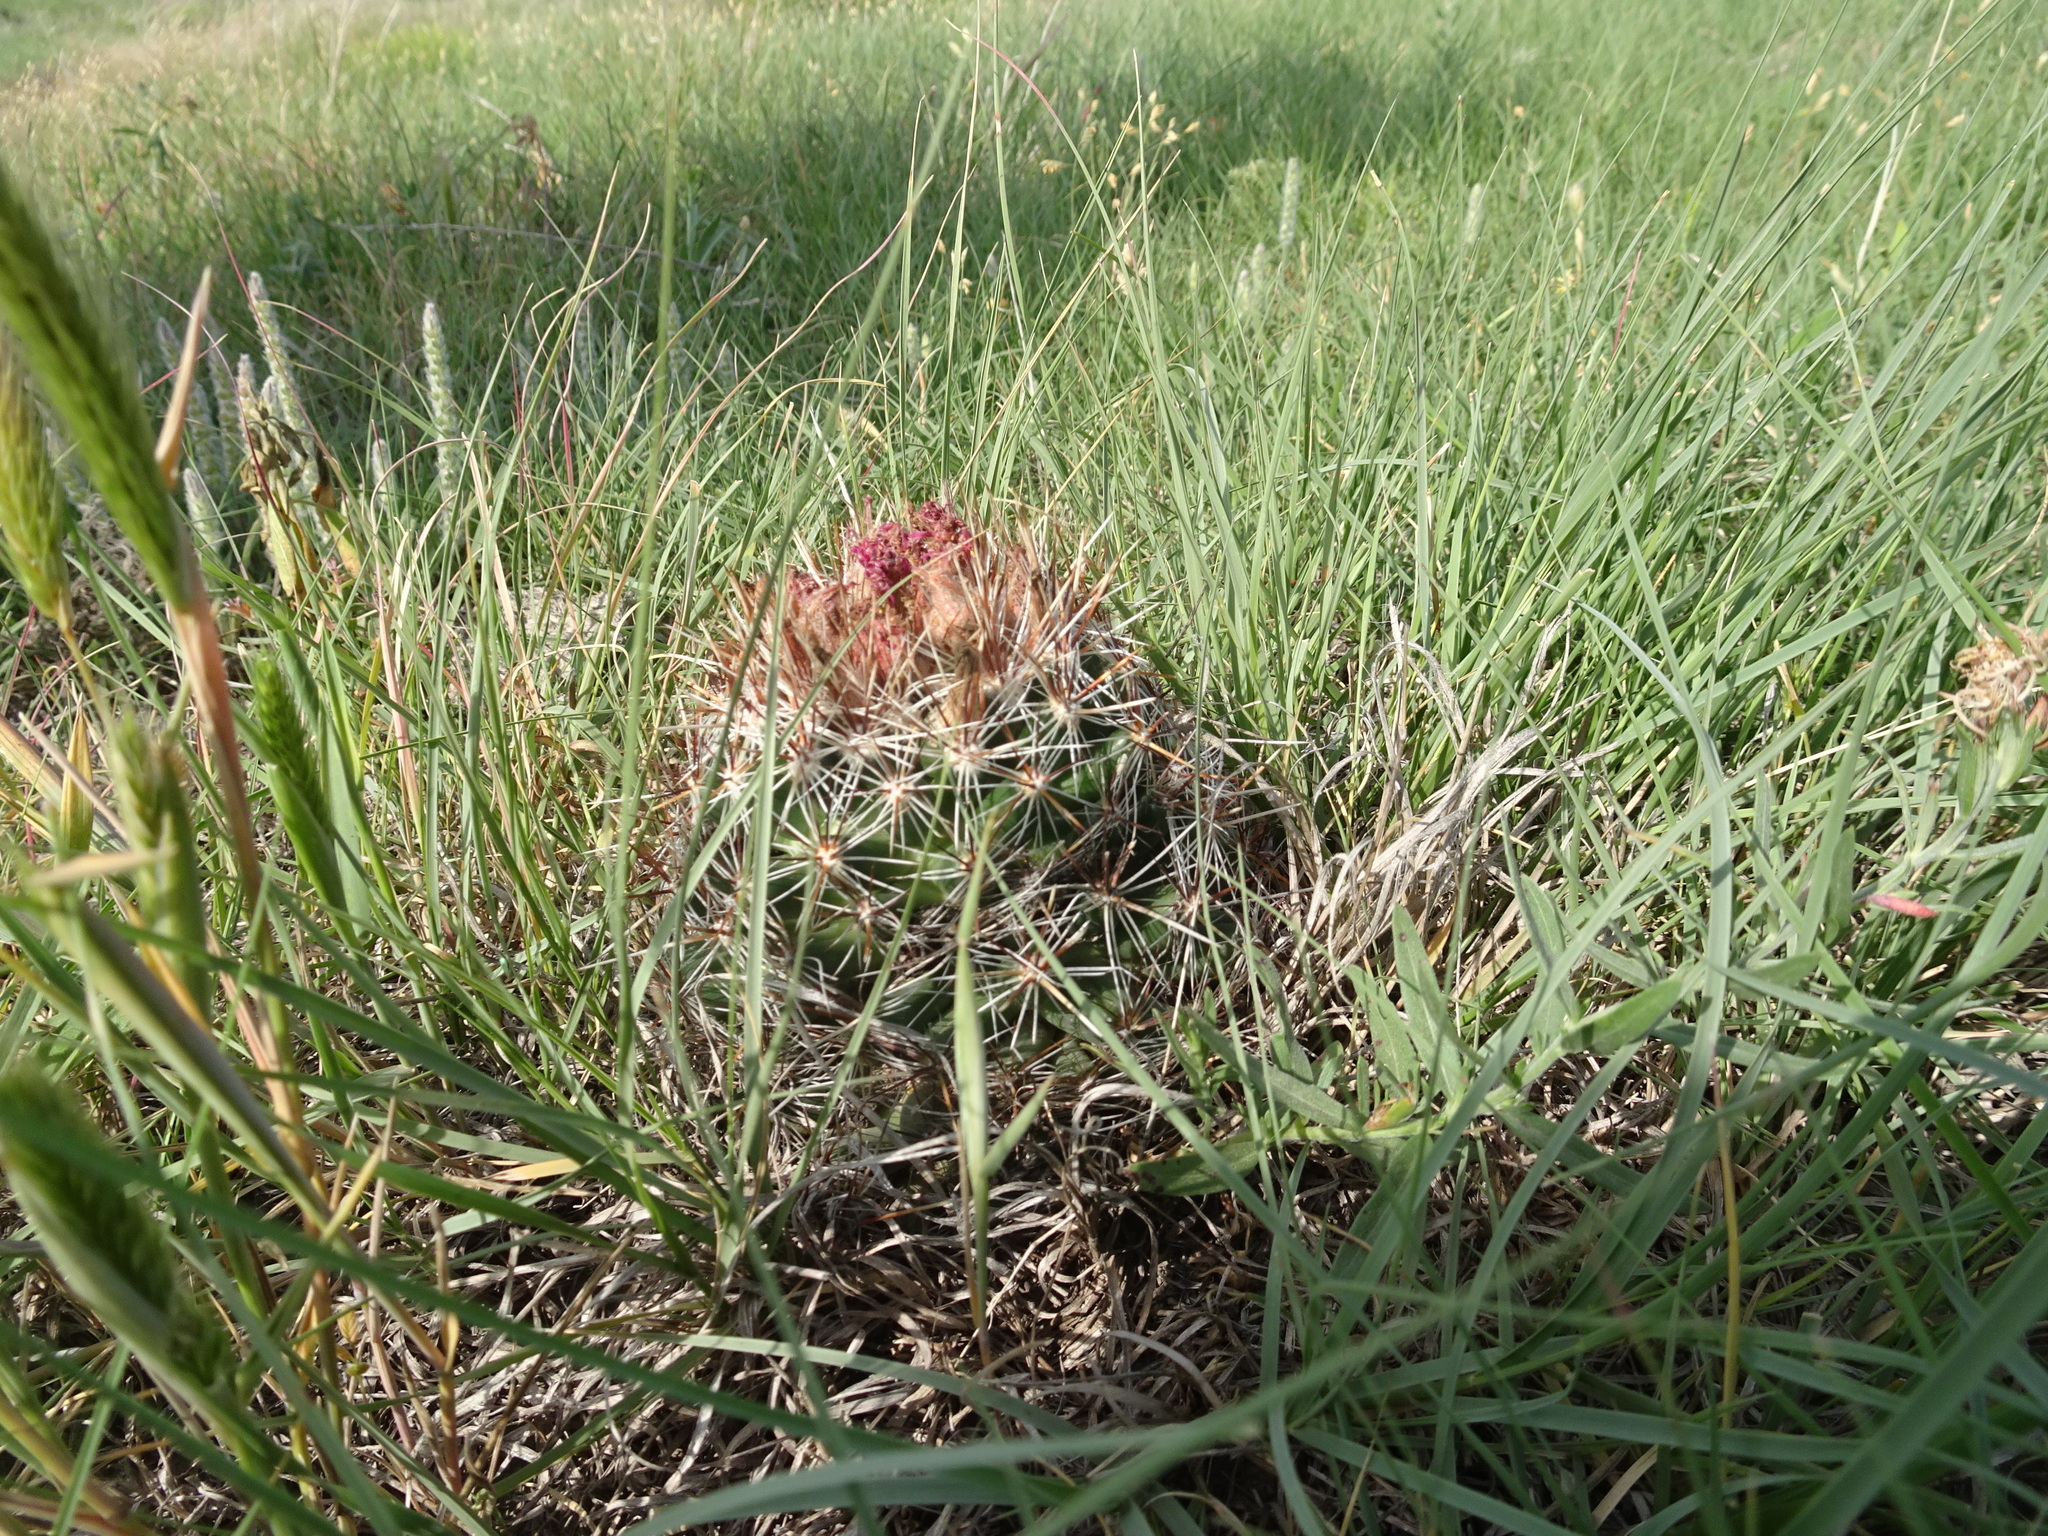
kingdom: Plantae
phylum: Tracheophyta
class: Magnoliopsida
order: Caryophyllales
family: Cactaceae
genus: Pelecyphora
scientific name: Pelecyphora vivipara
